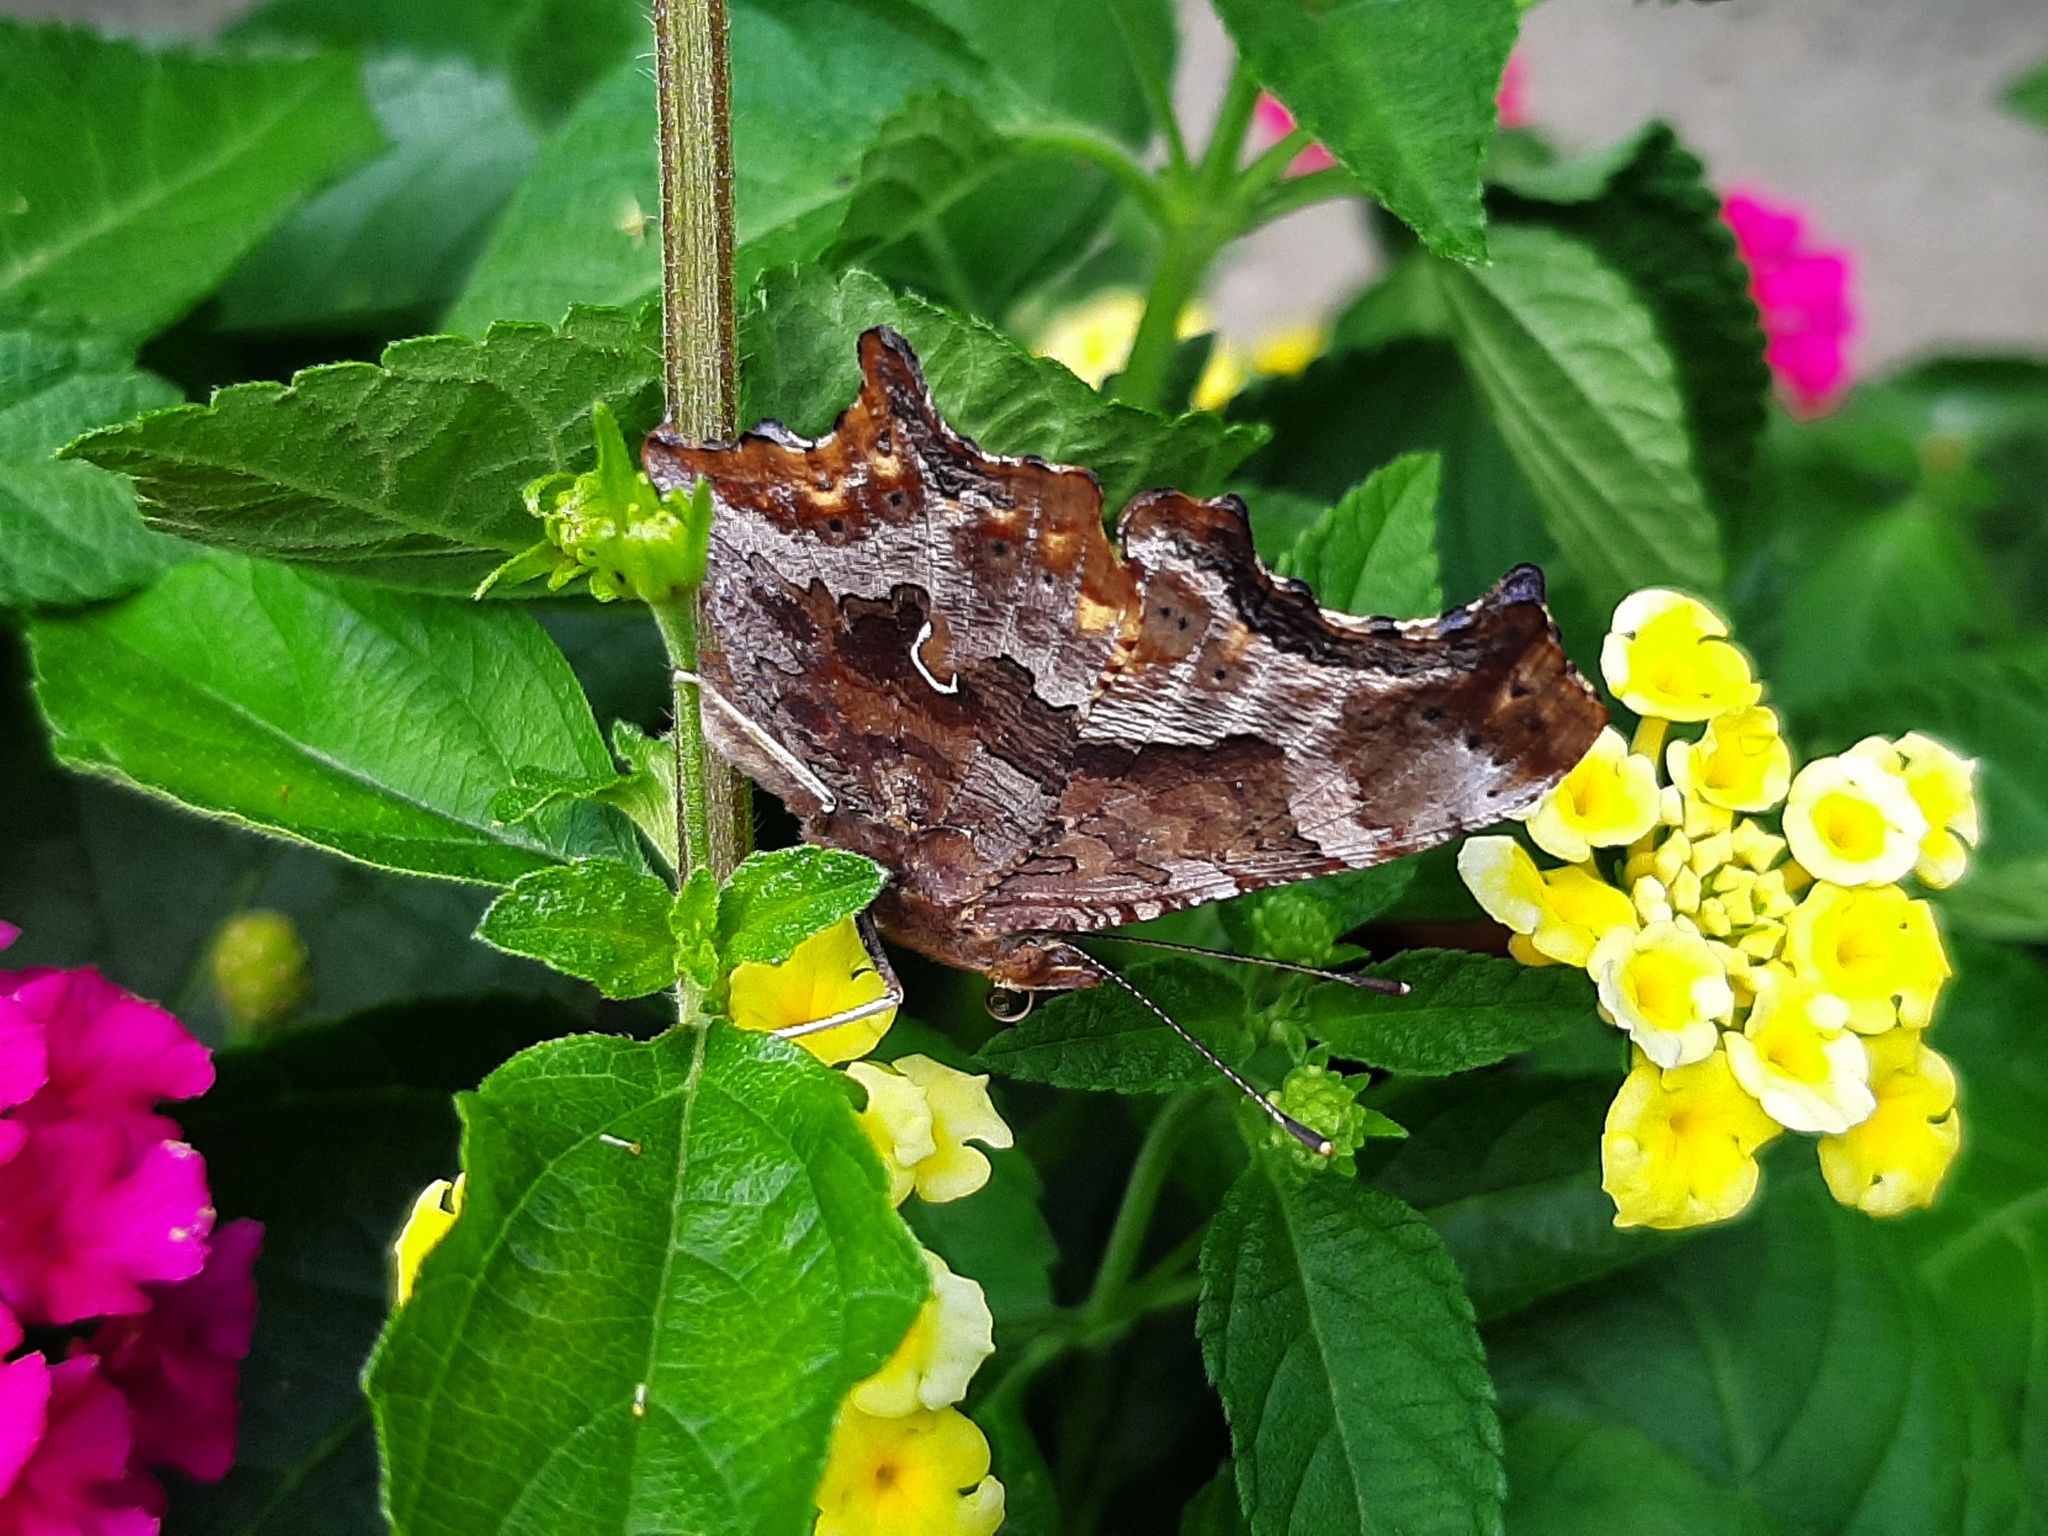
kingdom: Animalia
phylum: Arthropoda
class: Insecta
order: Lepidoptera
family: Nymphalidae
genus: Polygonia
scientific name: Polygonia comma
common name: Eastern comma
